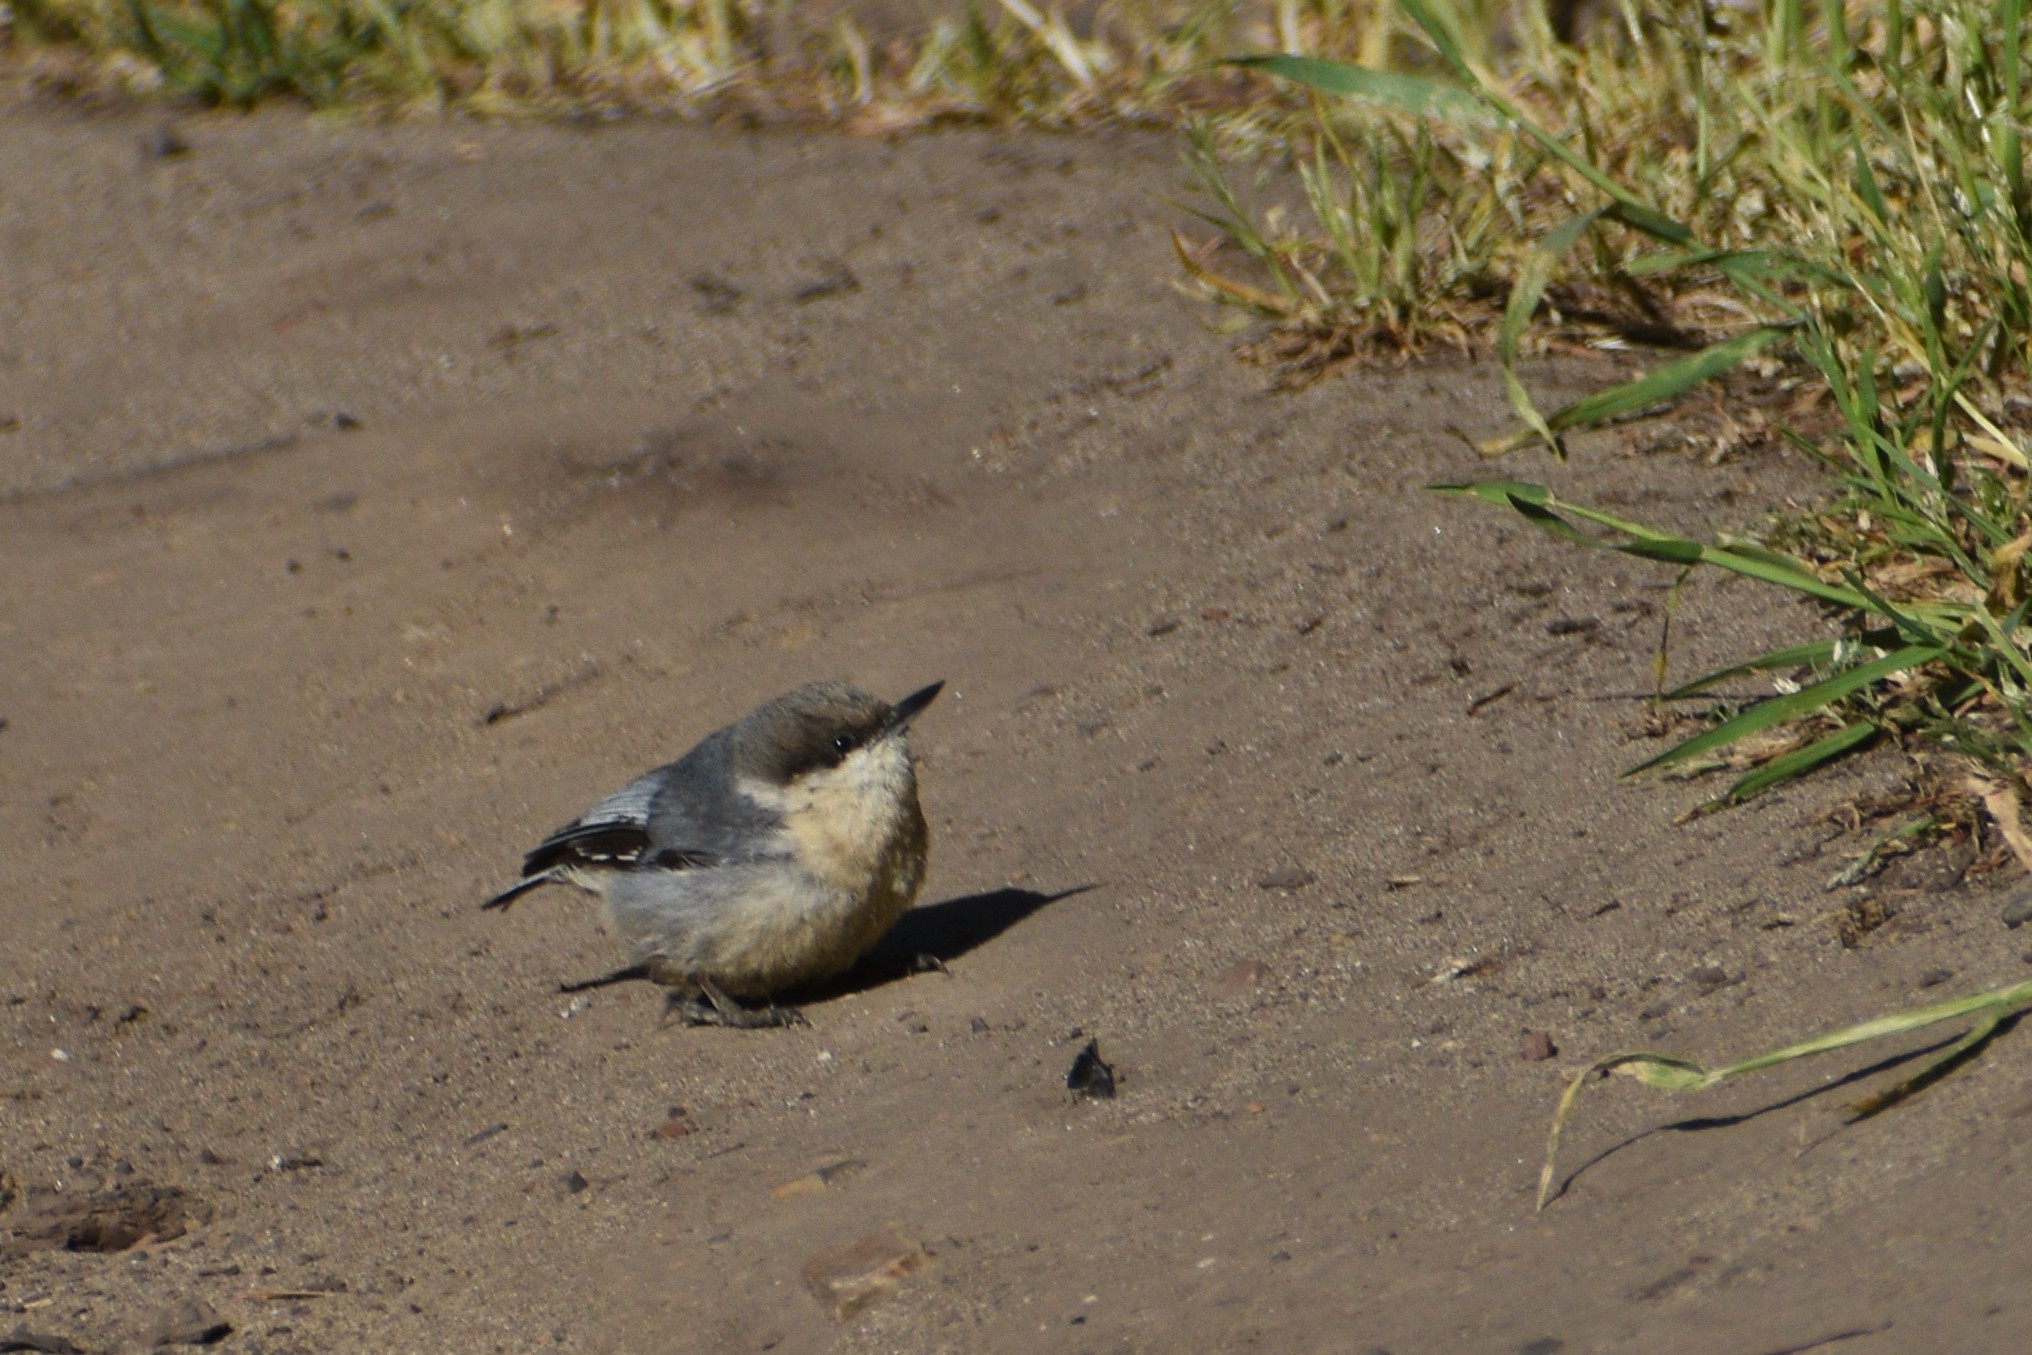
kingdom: Animalia
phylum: Chordata
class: Aves
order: Passeriformes
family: Sittidae
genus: Sitta
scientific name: Sitta pygmaea
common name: Pygmy nuthatch
